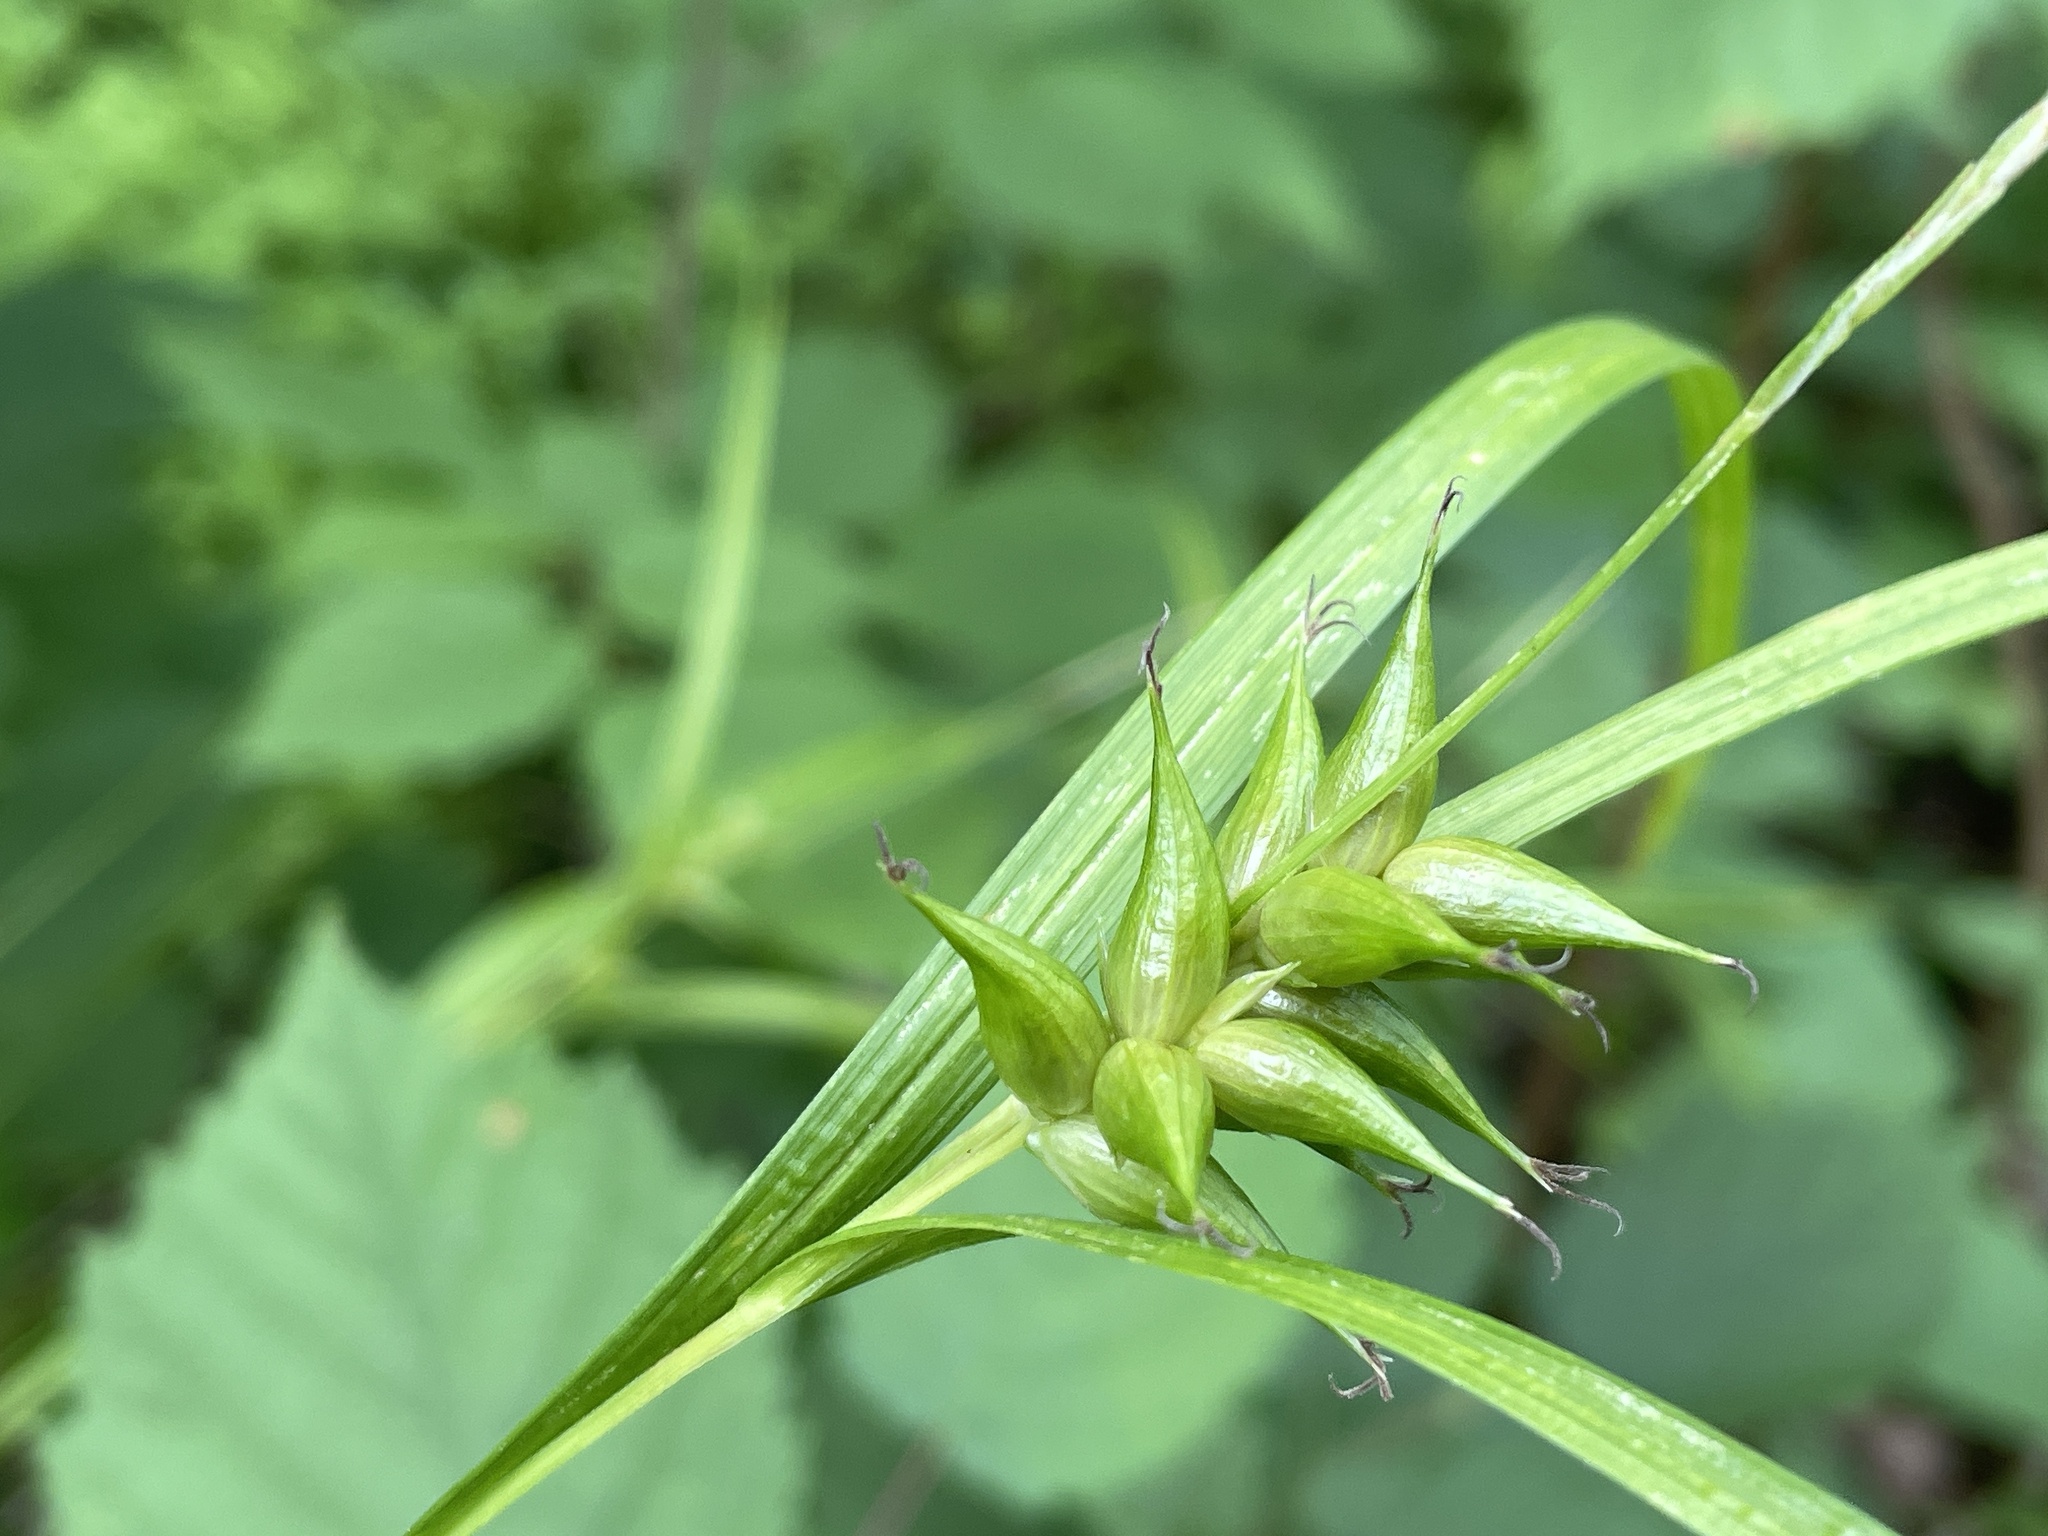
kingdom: Plantae
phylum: Tracheophyta
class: Liliopsida
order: Poales
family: Cyperaceae
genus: Carex
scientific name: Carex intumescens
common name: Greater bladder sedge
